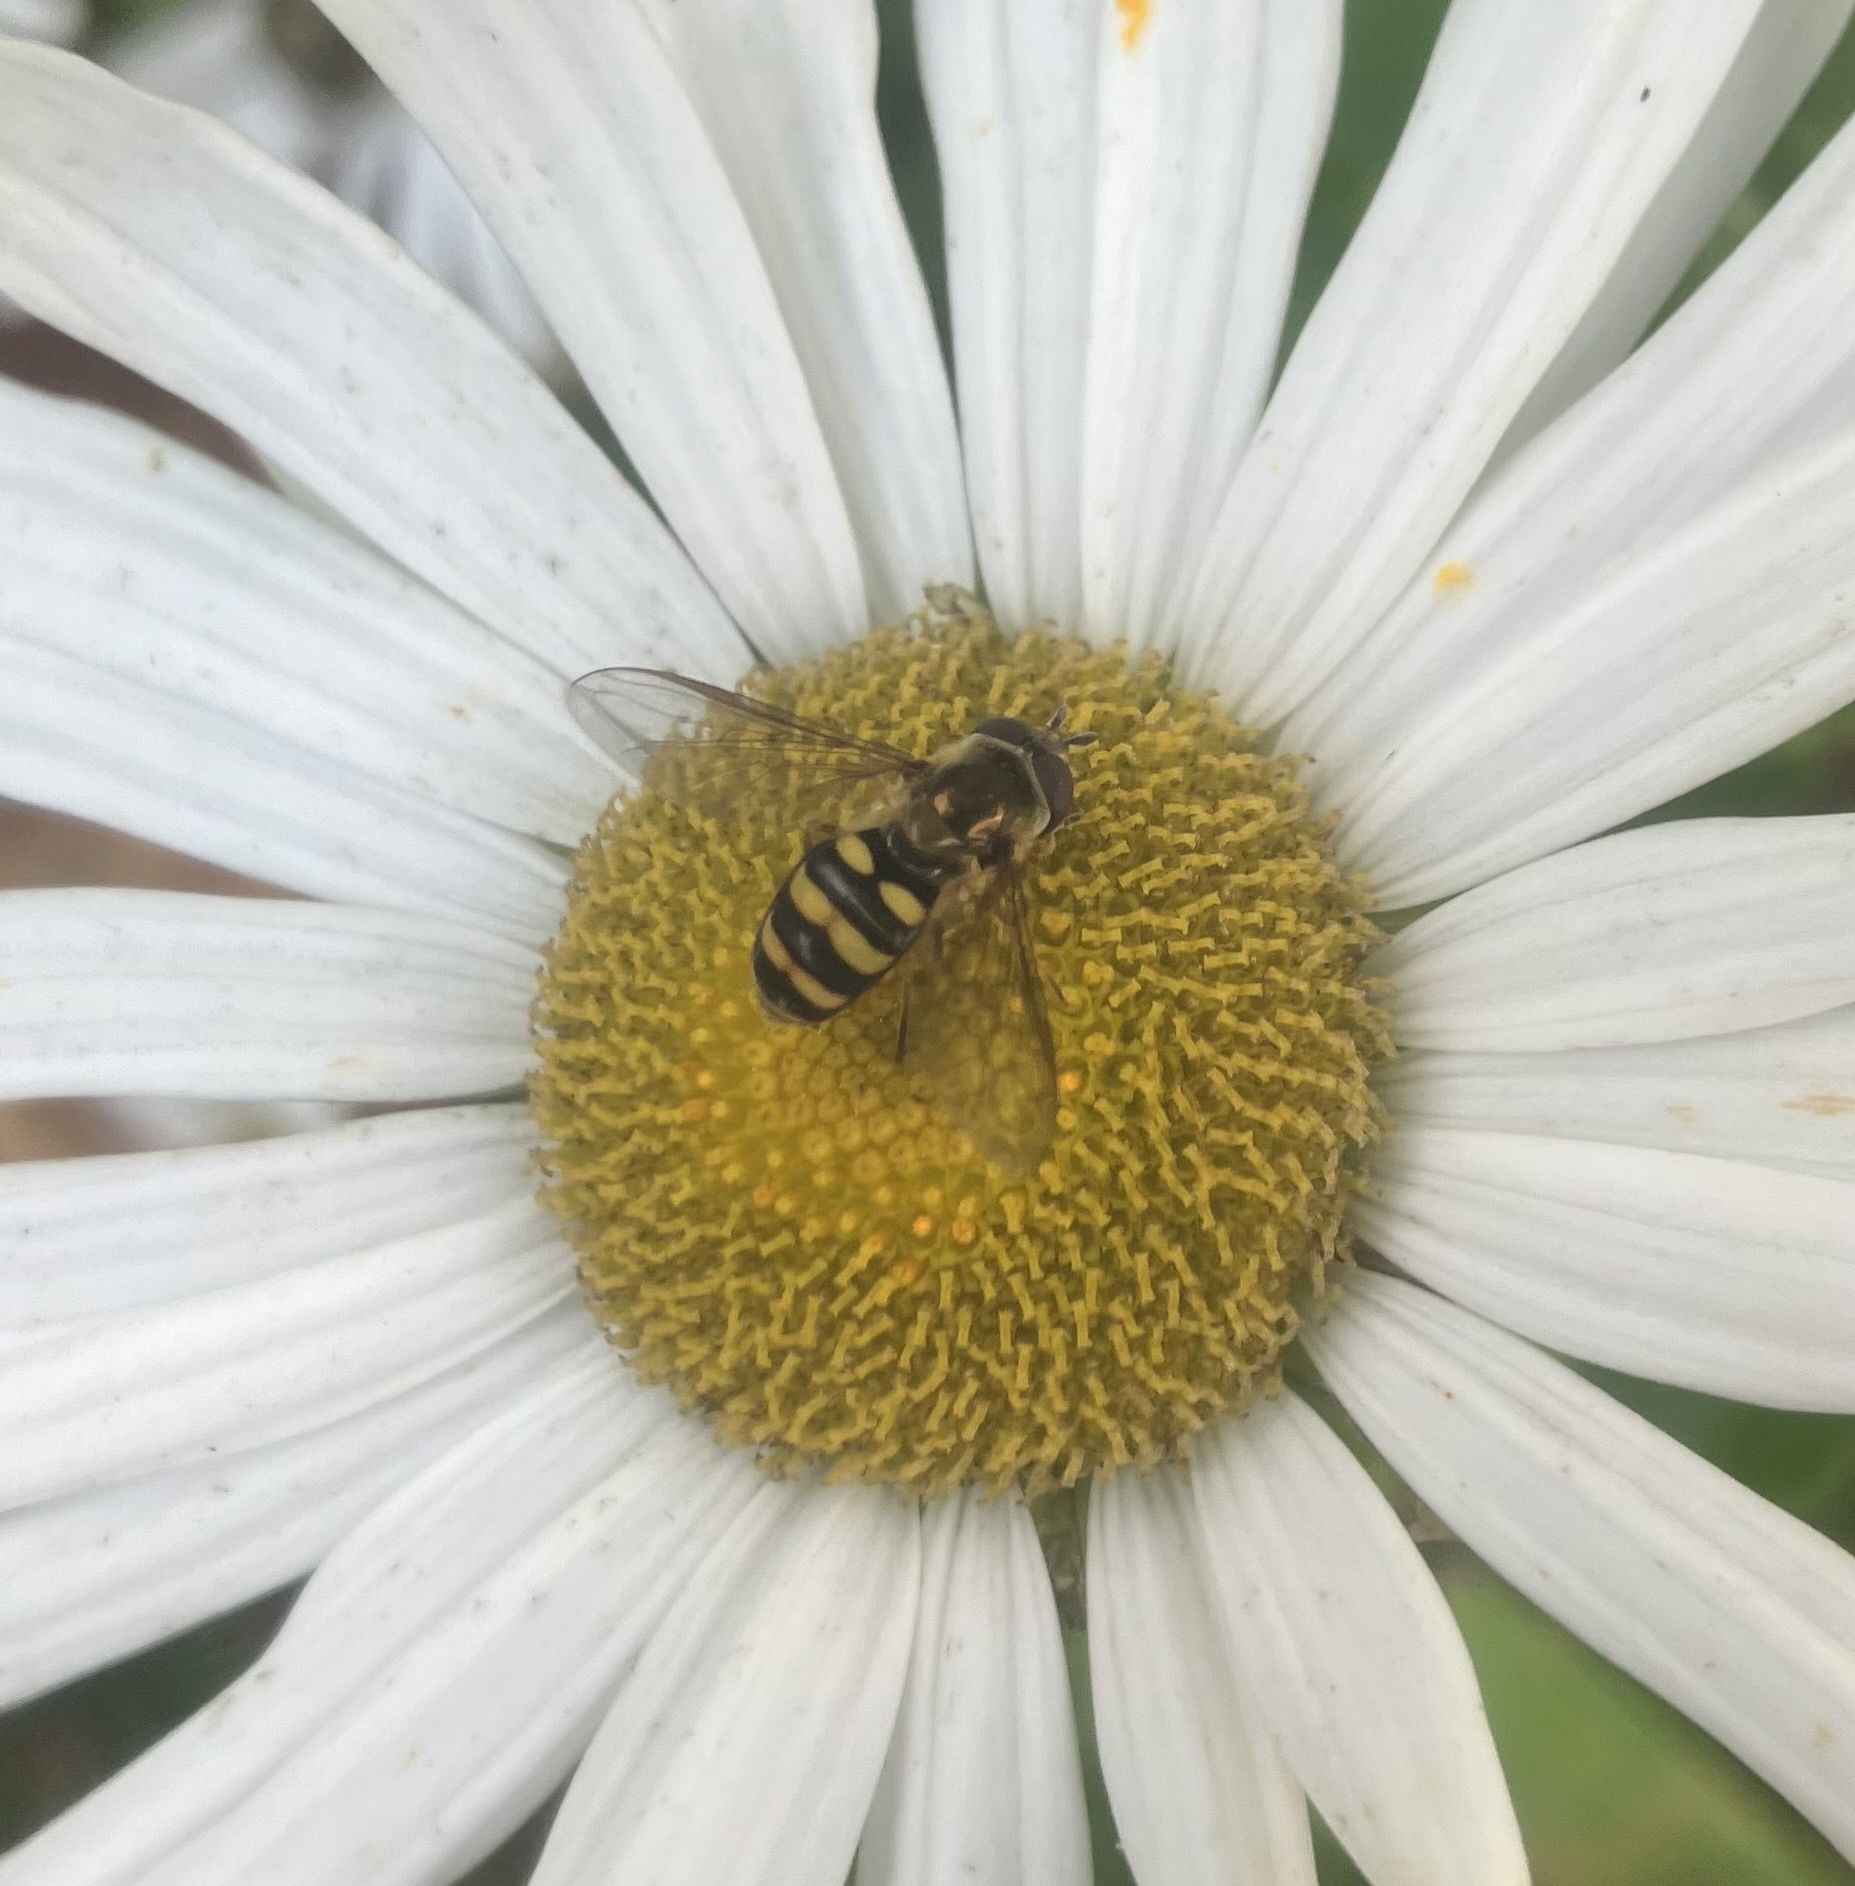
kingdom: Animalia
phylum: Arthropoda
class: Insecta
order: Diptera
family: Syrphidae
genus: Eupeodes
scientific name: Eupeodes
